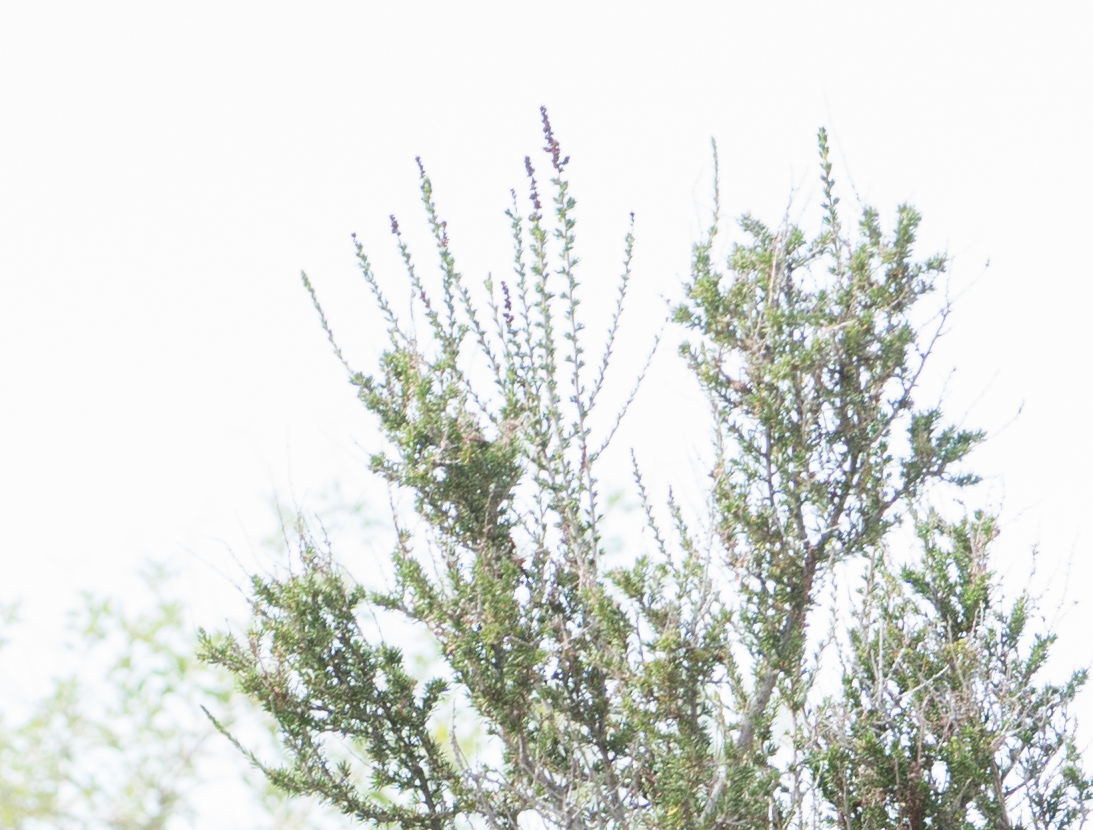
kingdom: Plantae
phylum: Tracheophyta
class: Magnoliopsida
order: Rosales
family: Rosaceae
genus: Adenostoma
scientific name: Adenostoma fasciculatum
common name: Chamise
